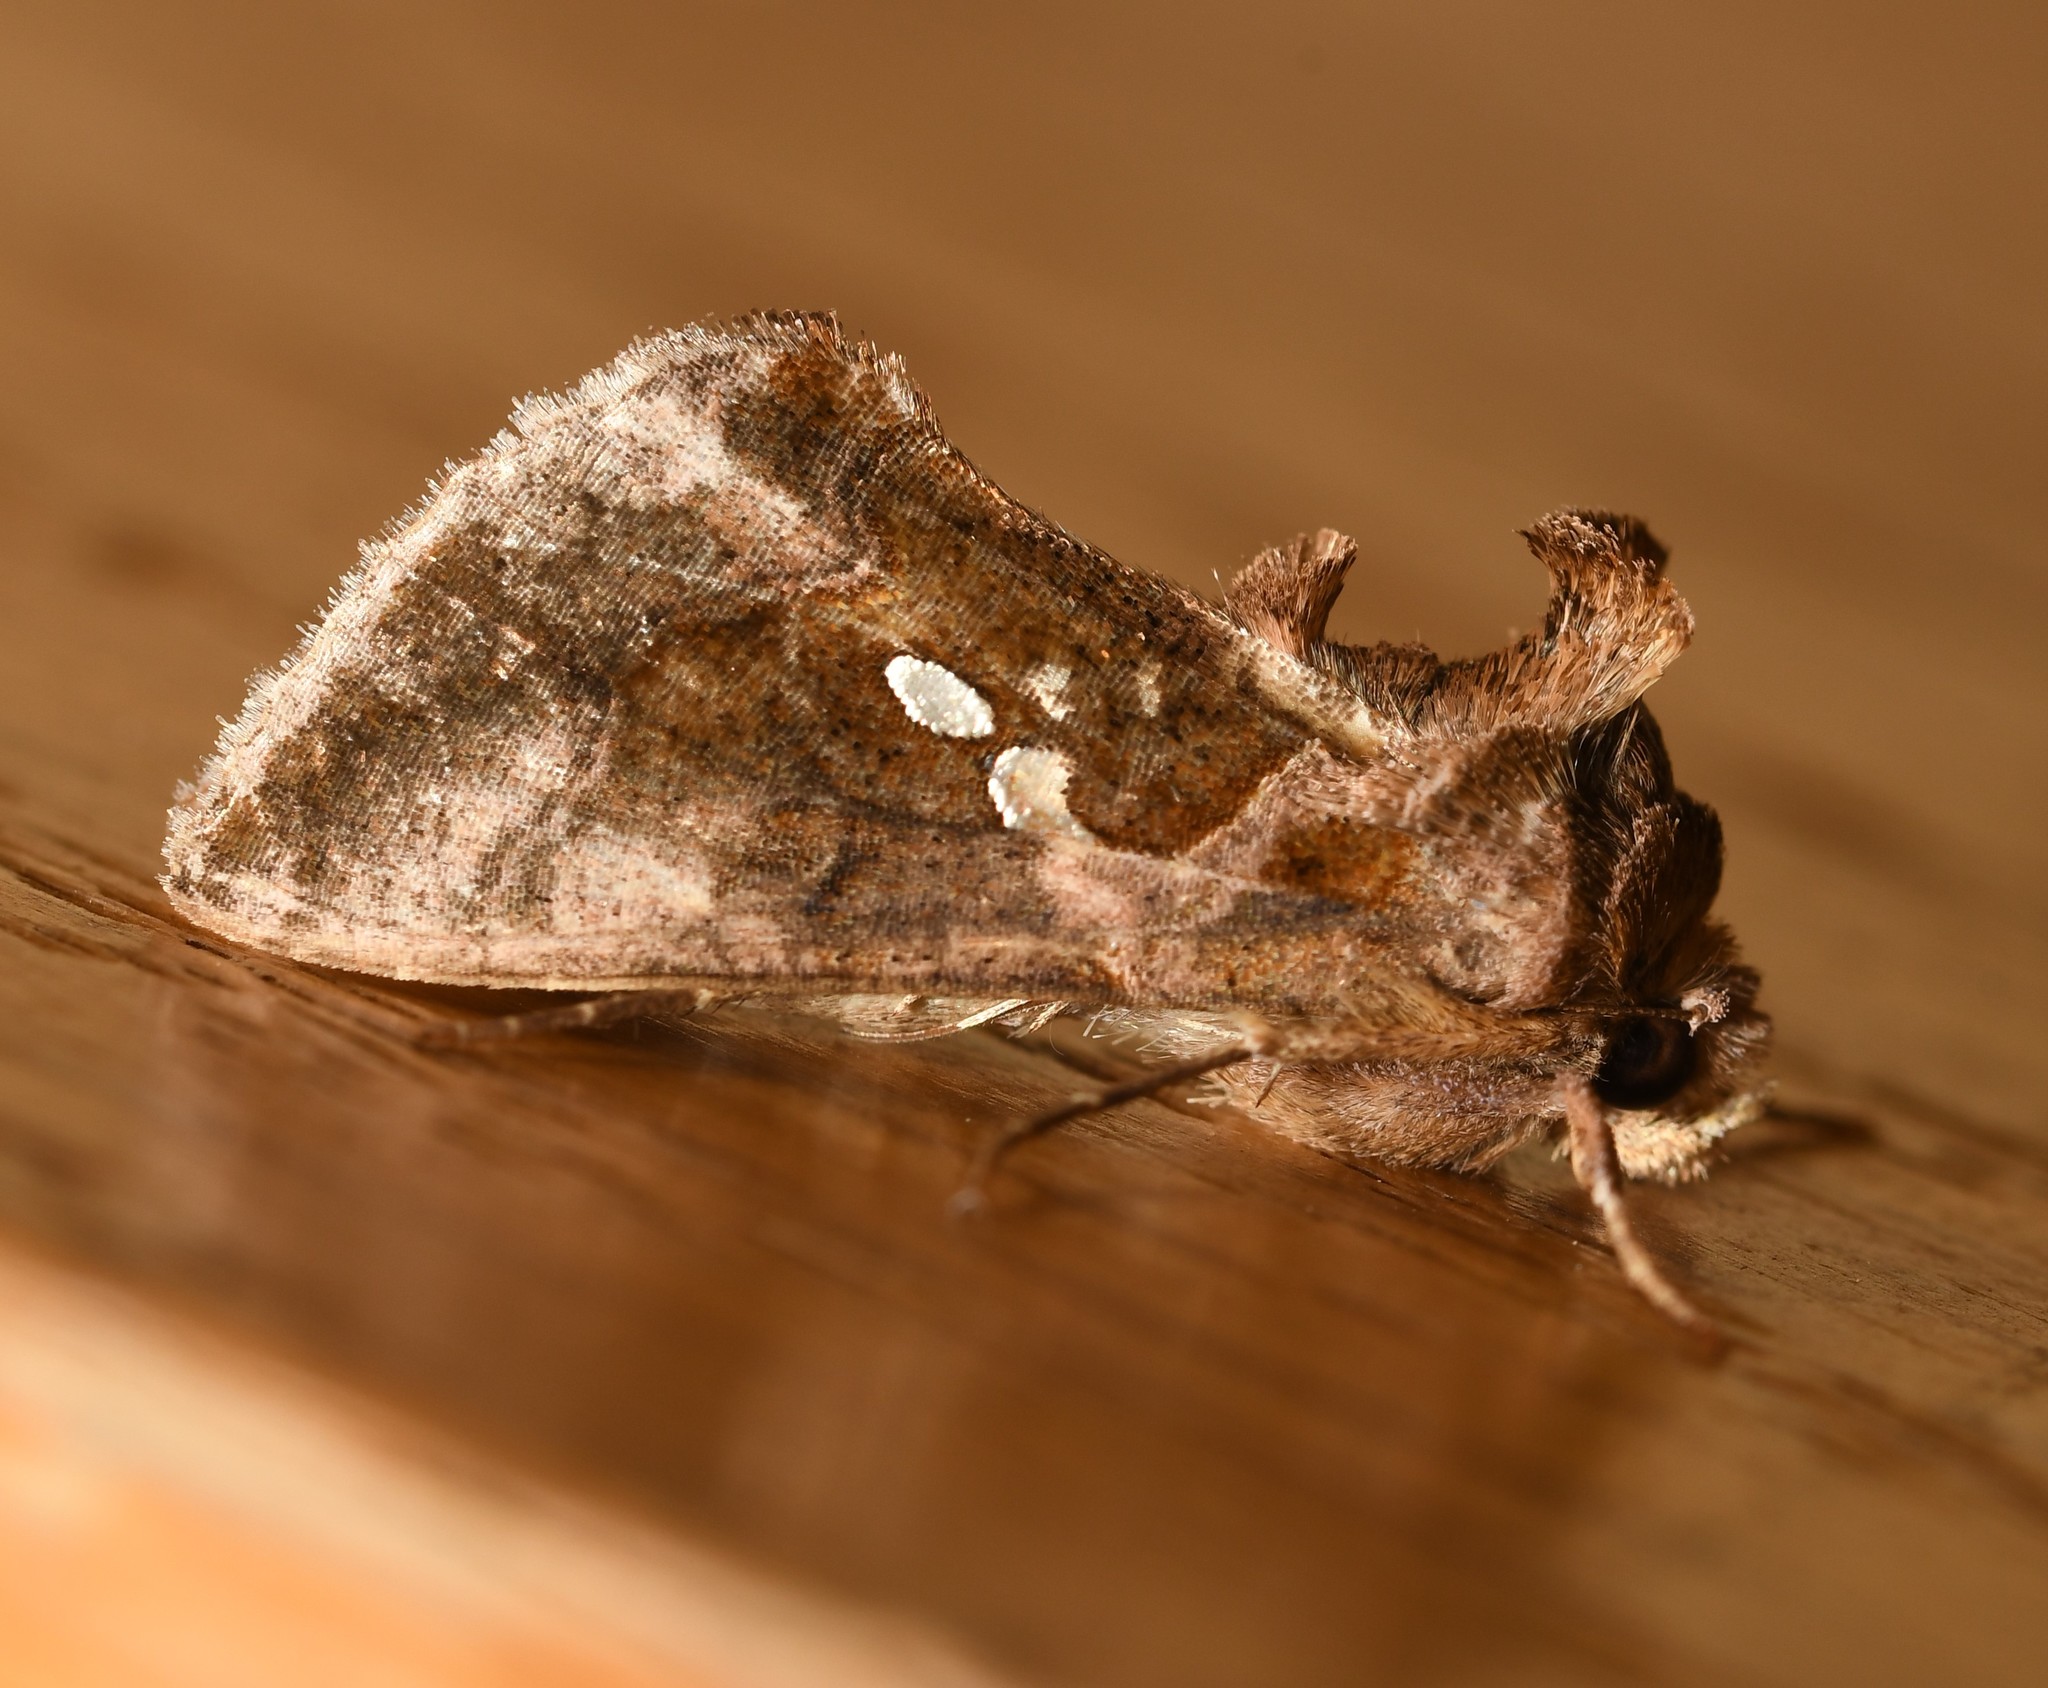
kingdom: Animalia
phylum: Arthropoda
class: Insecta
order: Lepidoptera
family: Noctuidae
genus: Chrysodeixis
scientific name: Chrysodeixis chalcites
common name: Golden twin-spot
